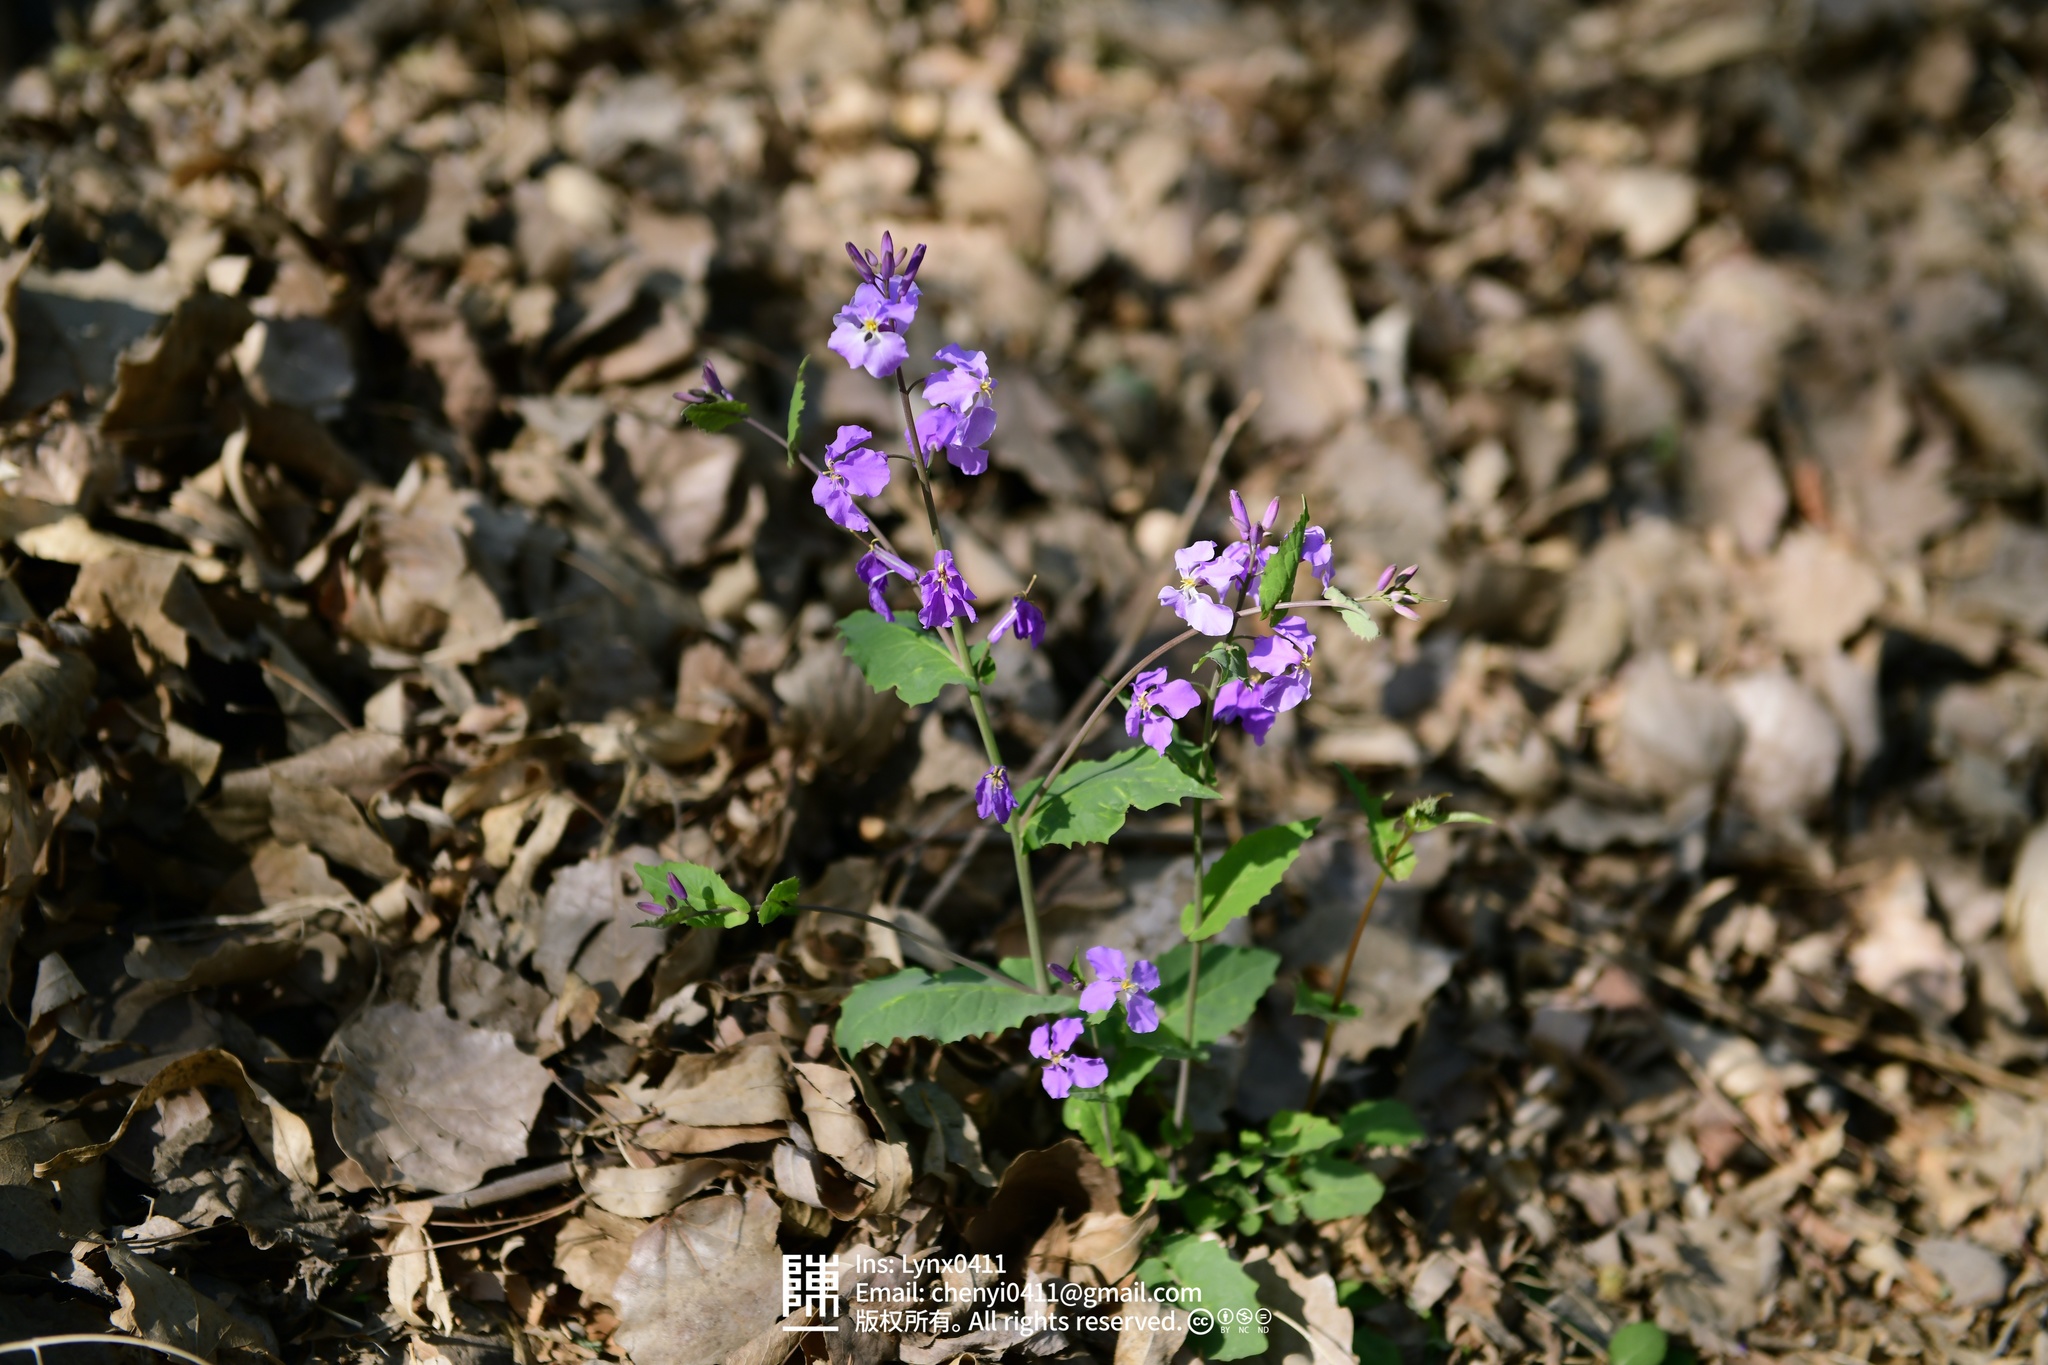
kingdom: Plantae
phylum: Tracheophyta
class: Magnoliopsida
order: Brassicales
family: Brassicaceae
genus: Orychophragmus
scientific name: Orychophragmus violaceus
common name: Mustard
